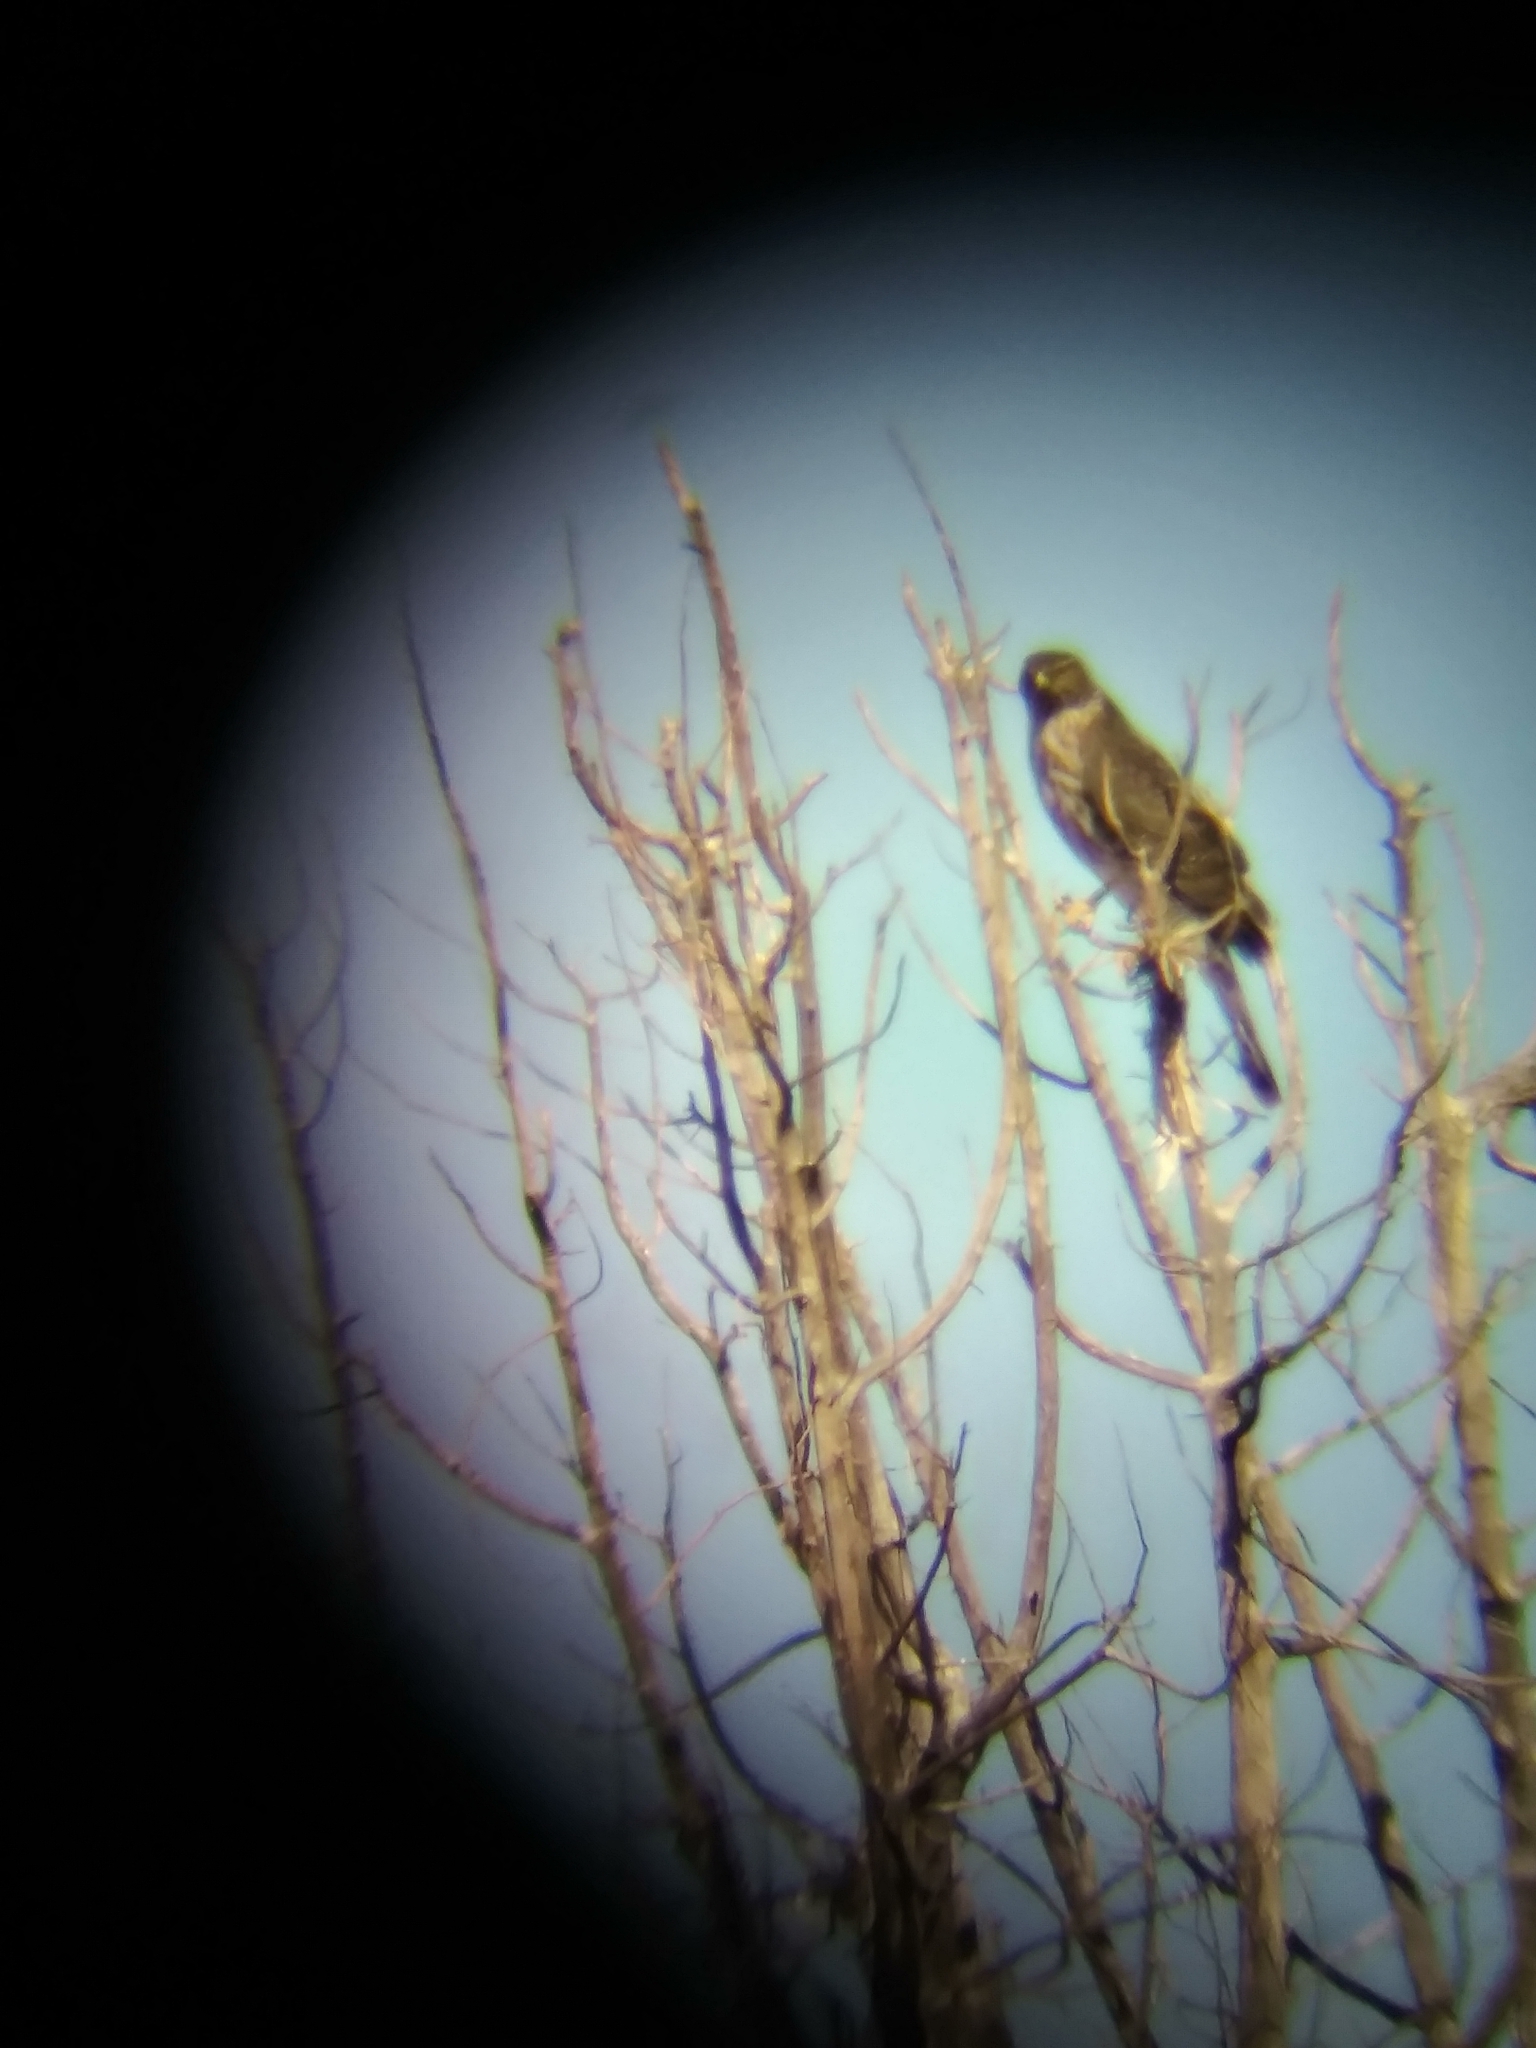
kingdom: Animalia
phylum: Chordata
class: Aves
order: Accipitriformes
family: Accipitridae
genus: Accipiter
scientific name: Accipiter cooperii
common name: Cooper's hawk
